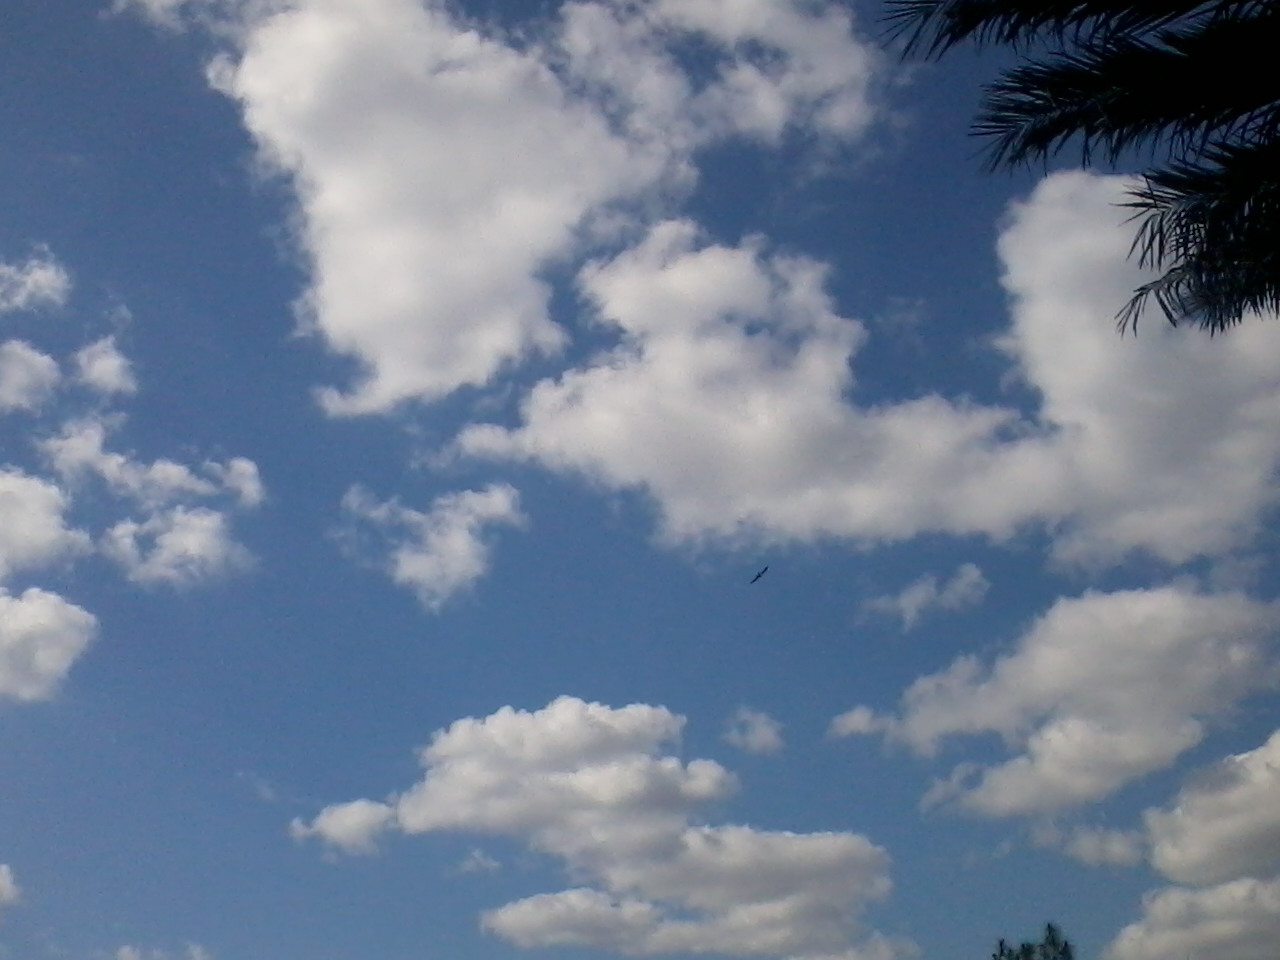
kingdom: Animalia
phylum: Chordata
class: Aves
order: Accipitriformes
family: Accipitridae
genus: Elanoides
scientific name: Elanoides forficatus
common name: Swallow-tailed kite
